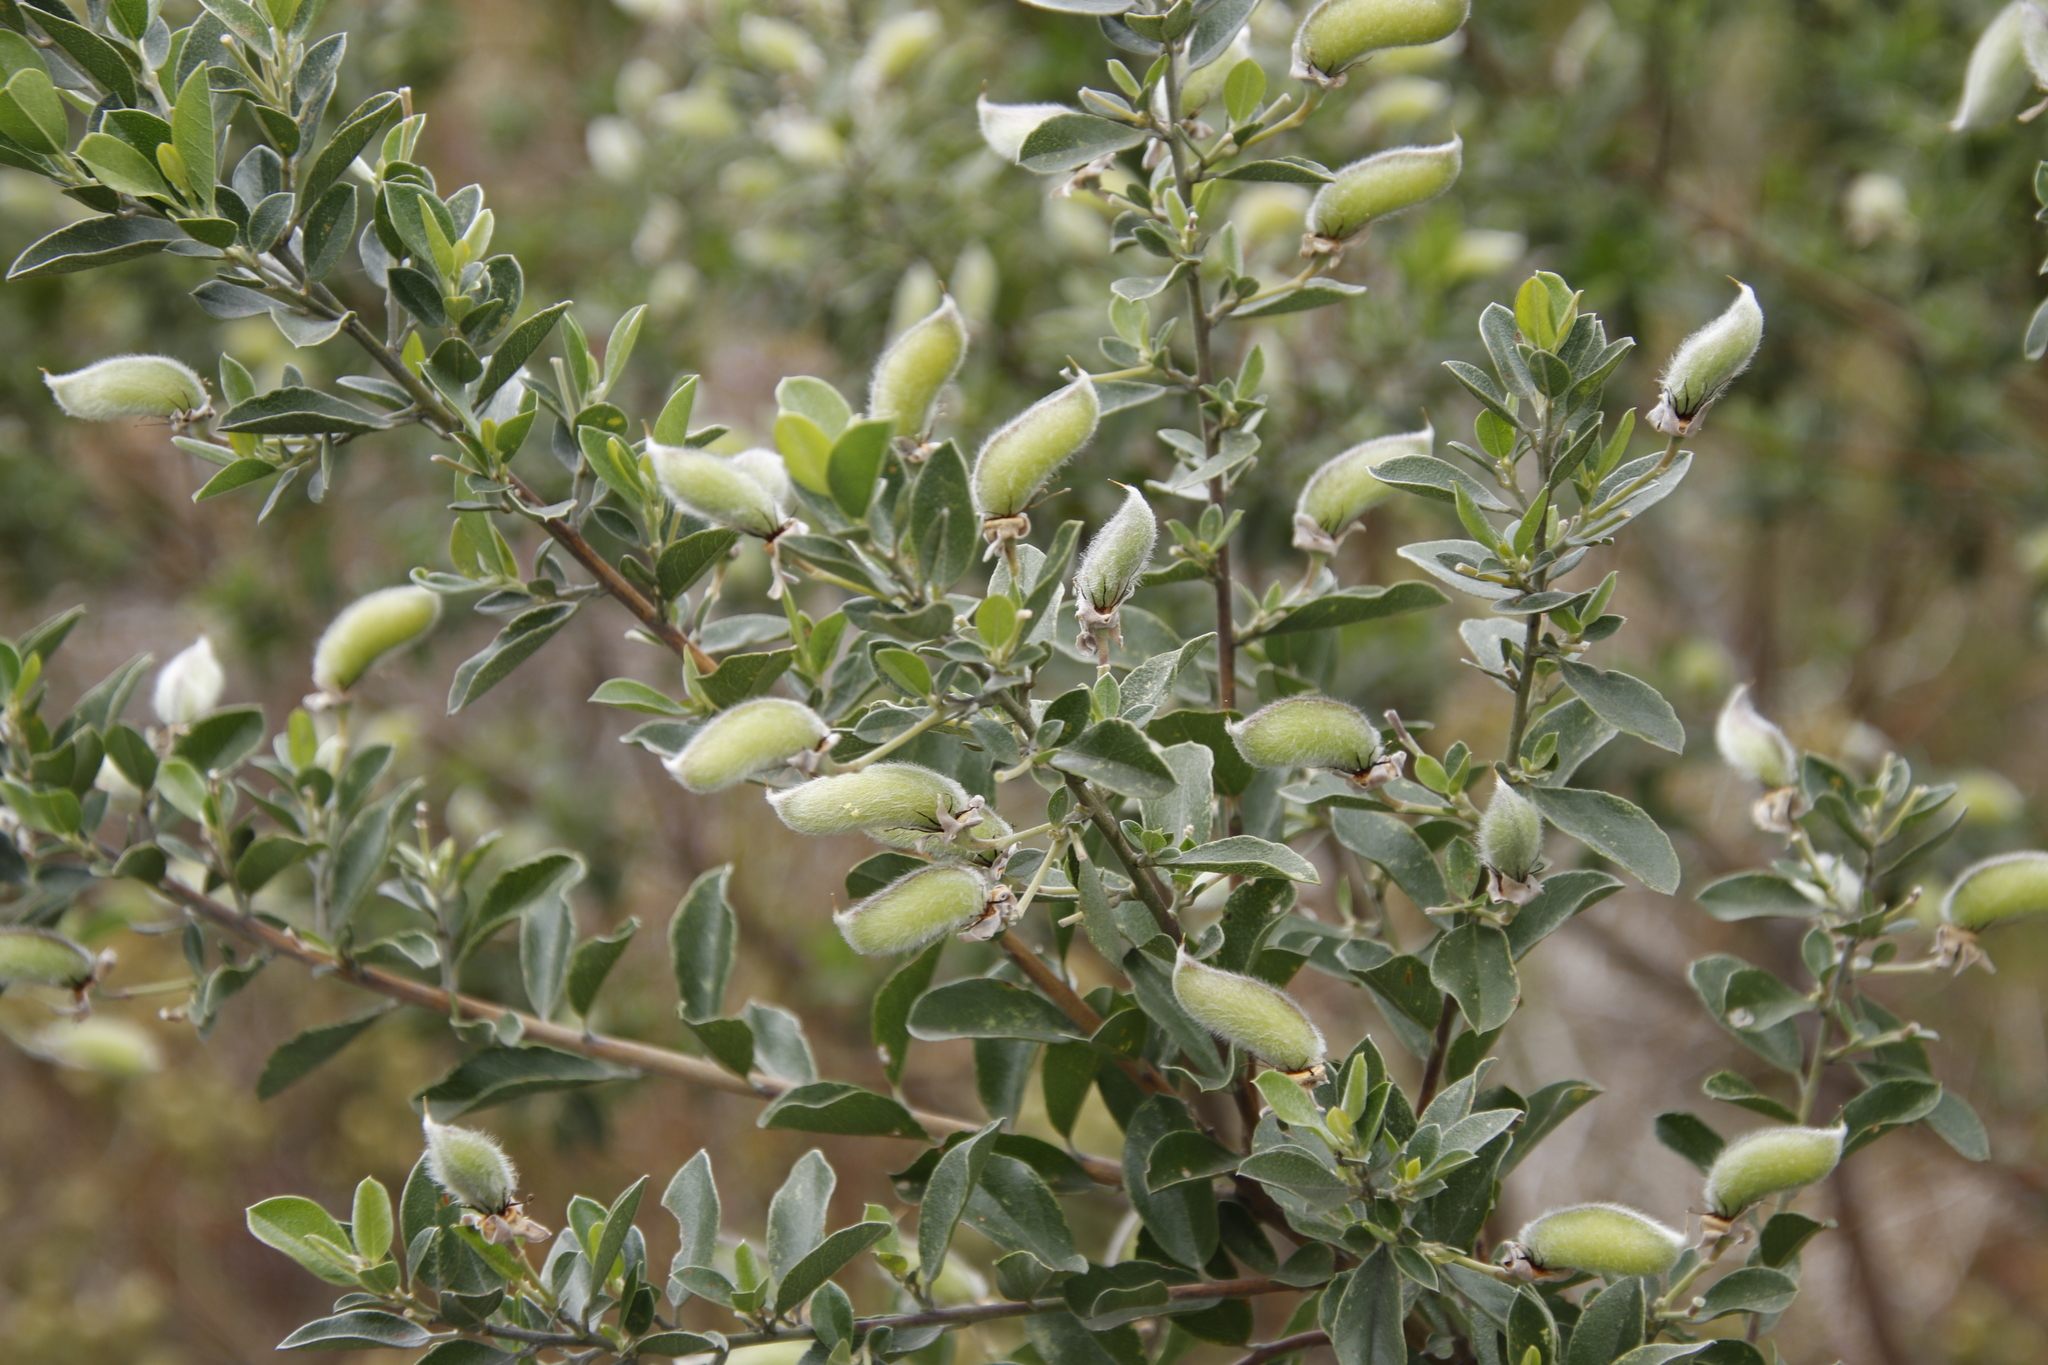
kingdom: Plantae
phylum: Tracheophyta
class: Magnoliopsida
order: Fabales
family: Fabaceae
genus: Podalyria
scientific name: Podalyria calyptrata
